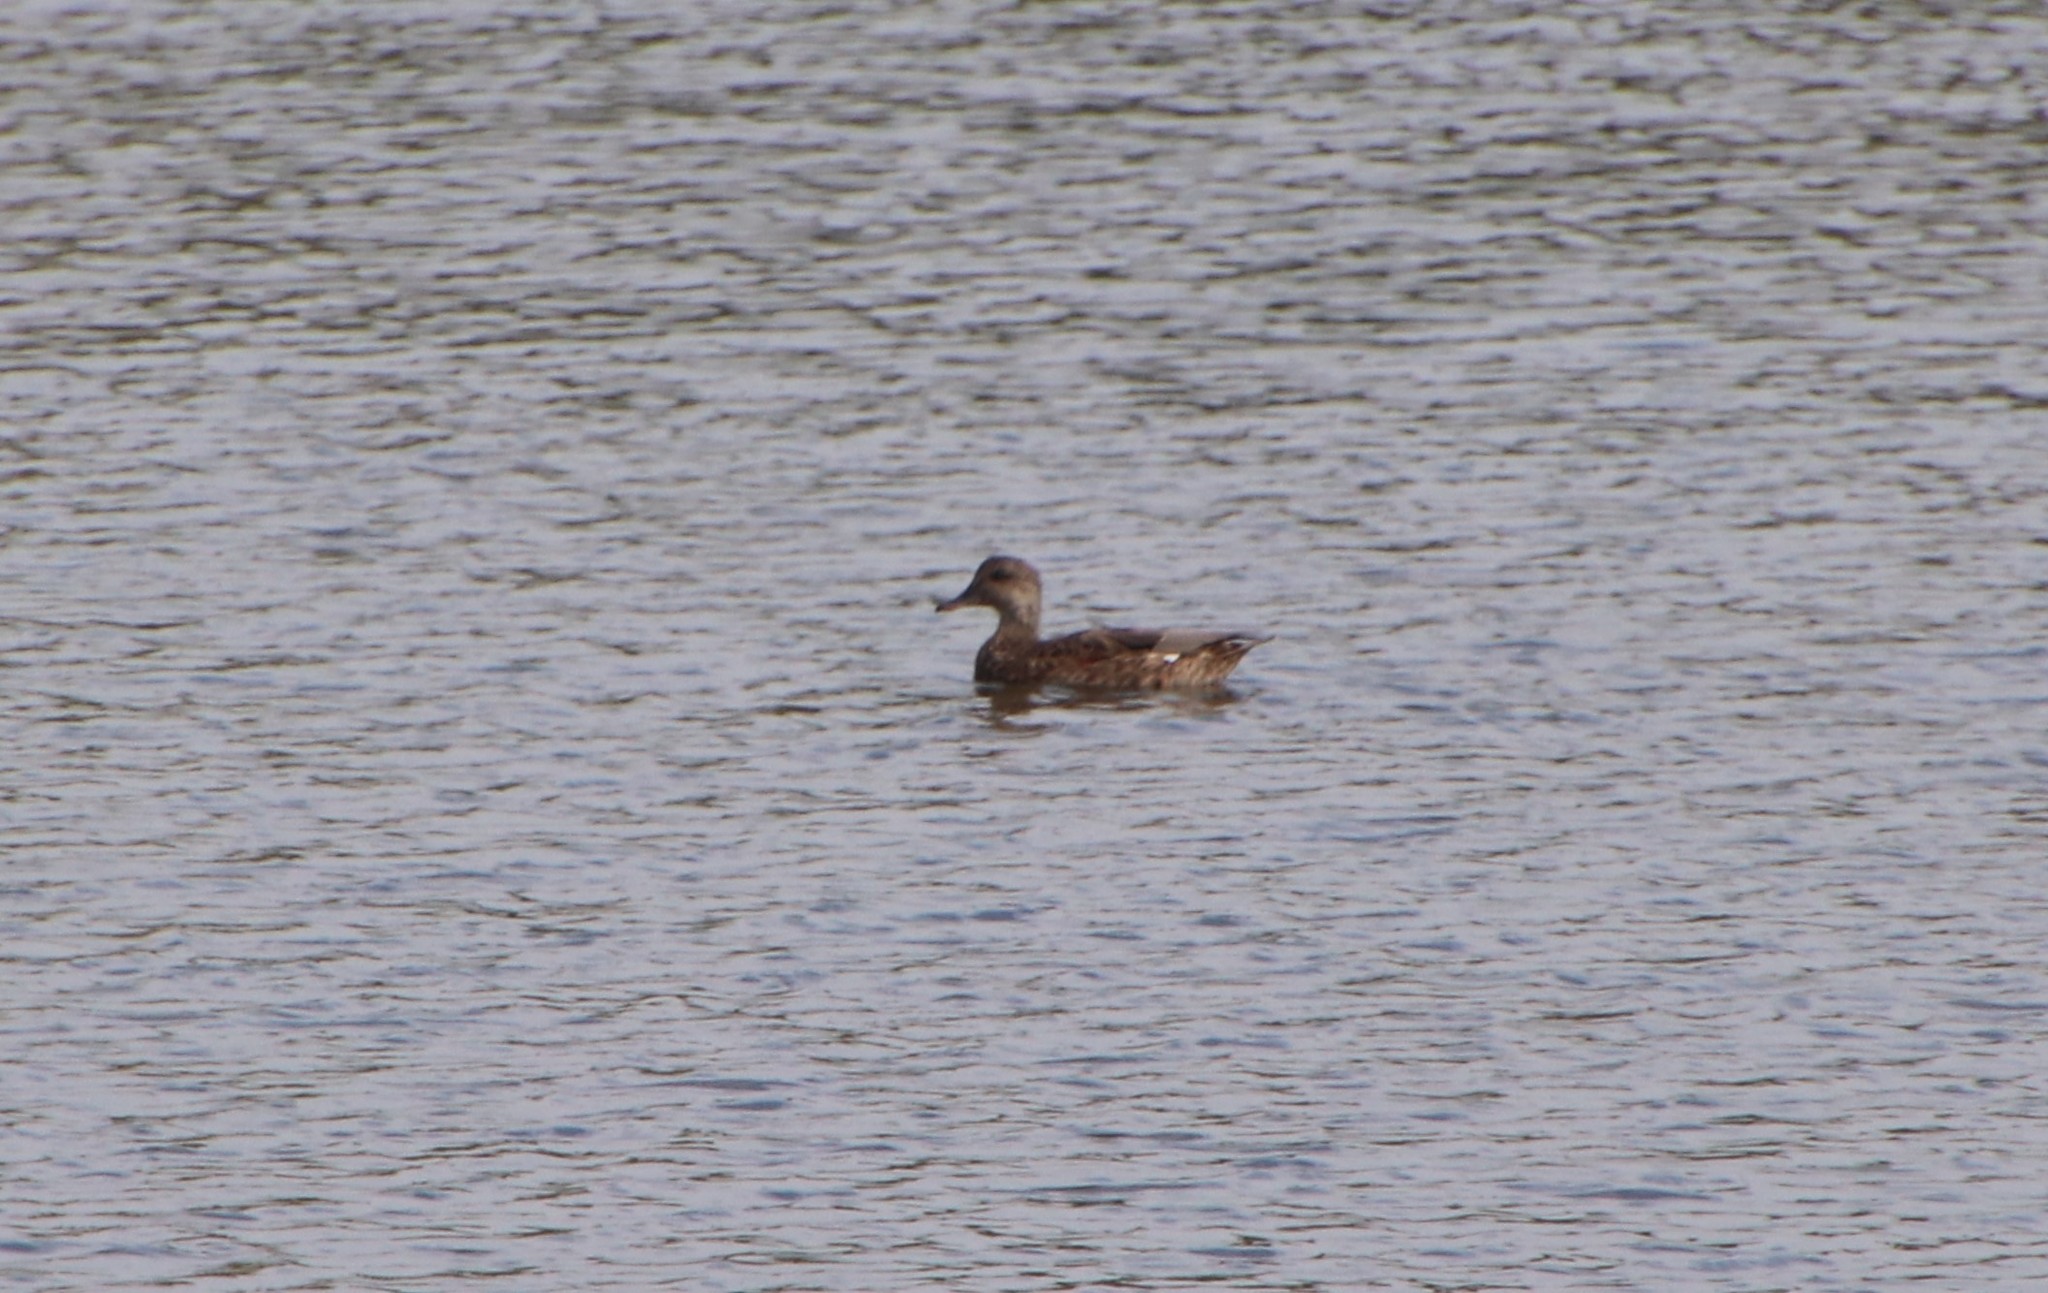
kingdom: Animalia
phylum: Chordata
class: Aves
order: Anseriformes
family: Anatidae
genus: Mareca
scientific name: Mareca strepera
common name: Gadwall
